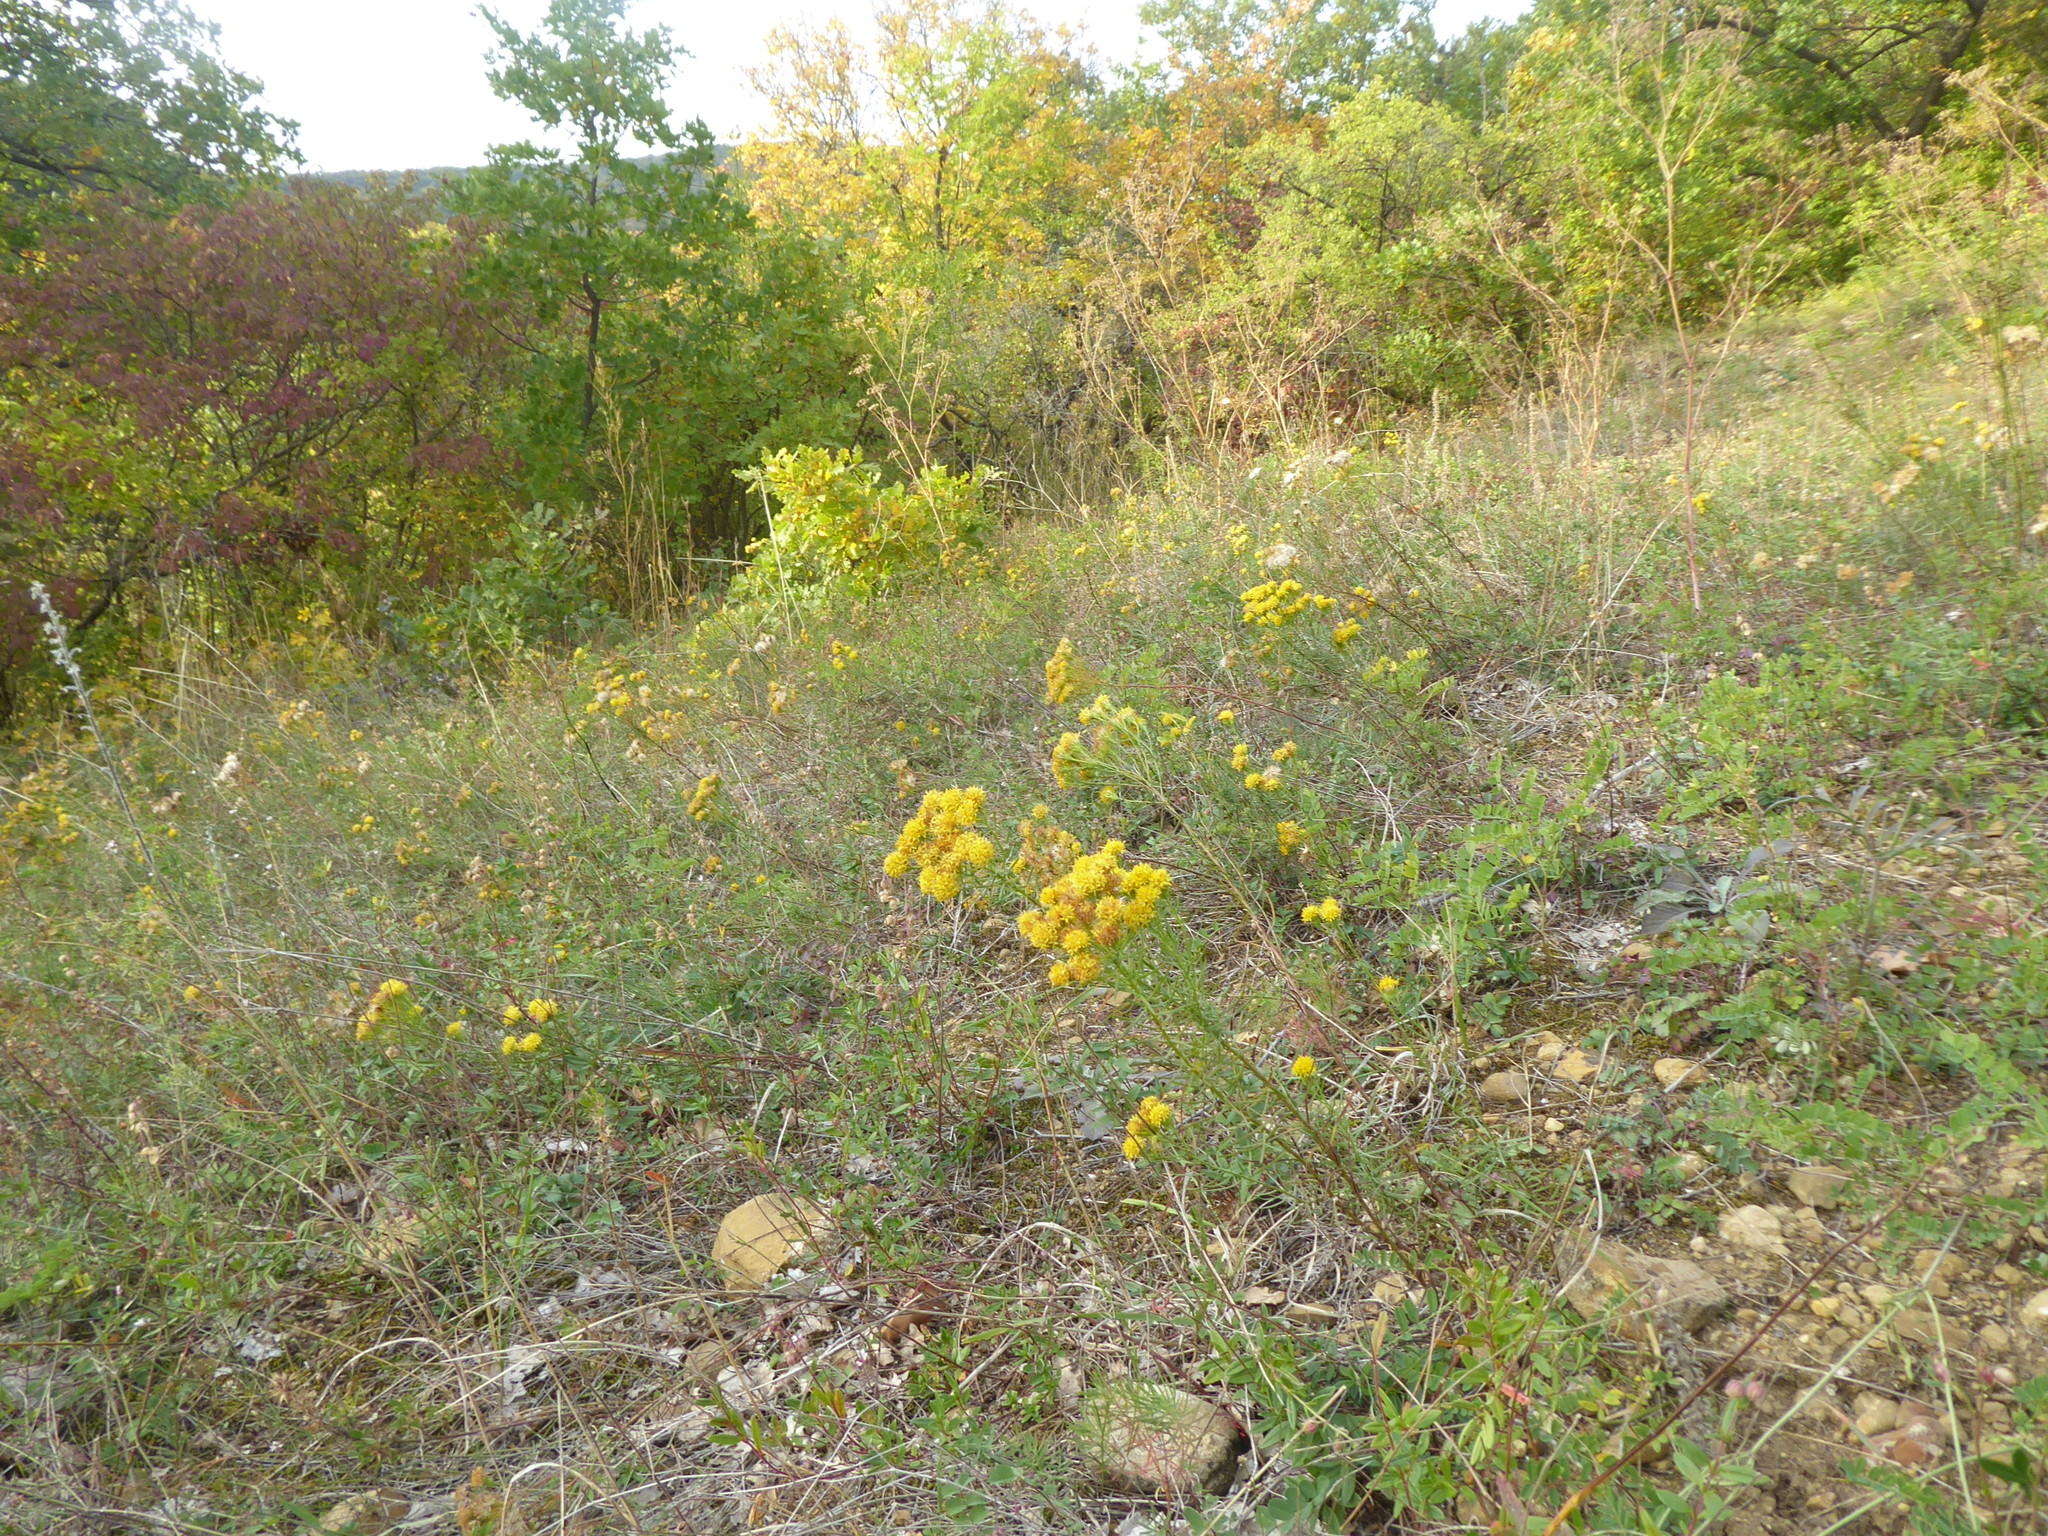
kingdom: Plantae
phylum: Tracheophyta
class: Magnoliopsida
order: Asterales
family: Asteraceae
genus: Galatella
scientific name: Galatella linosyris
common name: Goldilocks aster
